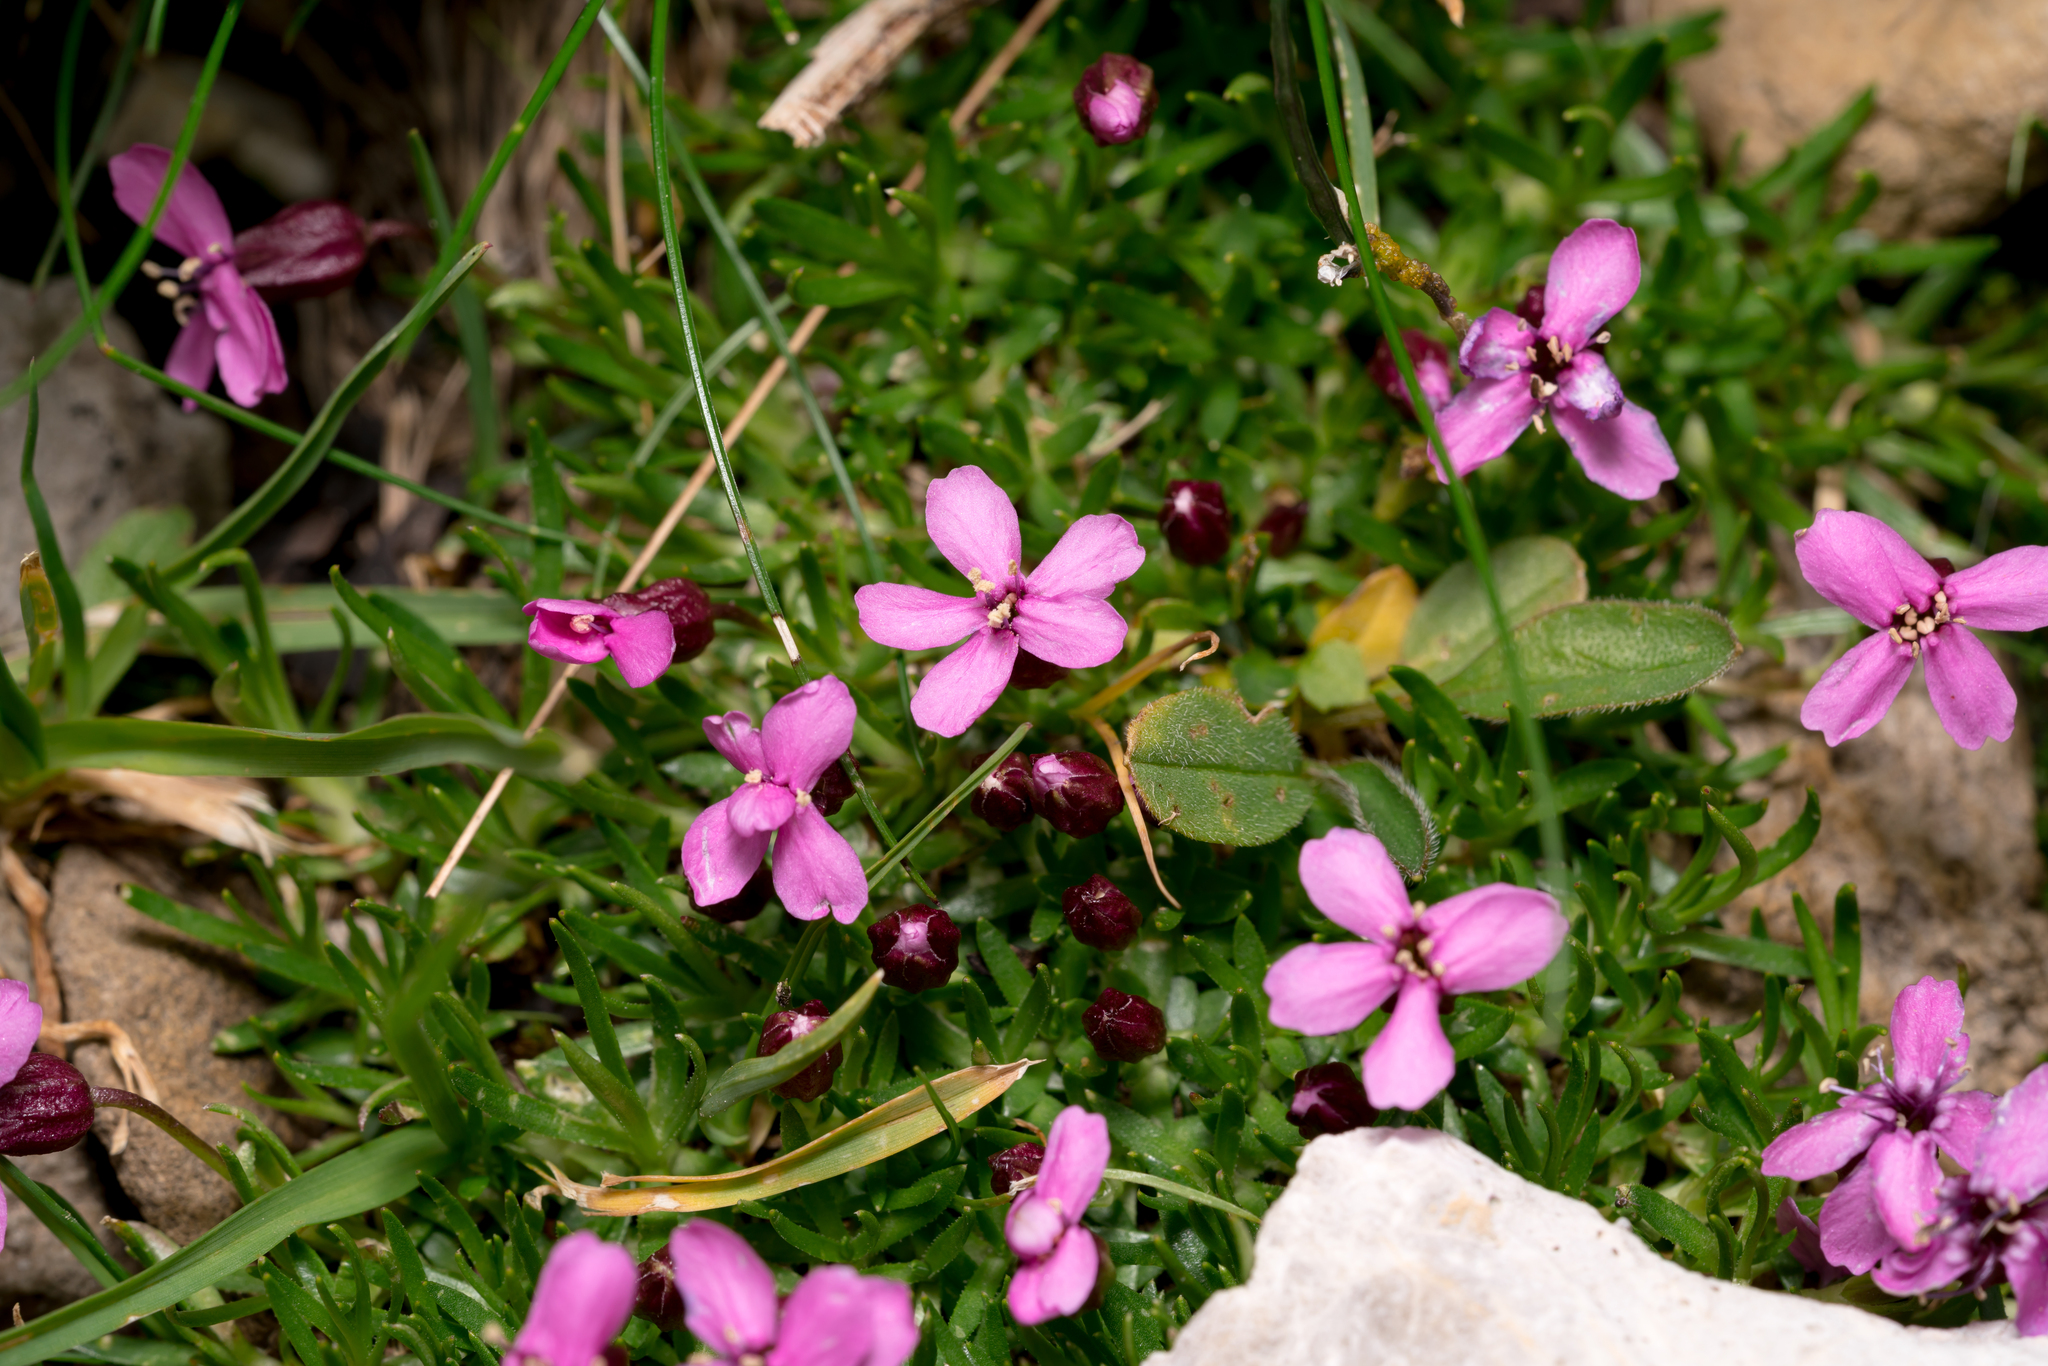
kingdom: Plantae
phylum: Tracheophyta
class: Magnoliopsida
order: Caryophyllales
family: Caryophyllaceae
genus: Silene
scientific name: Silene acaulis
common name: Moss campion
